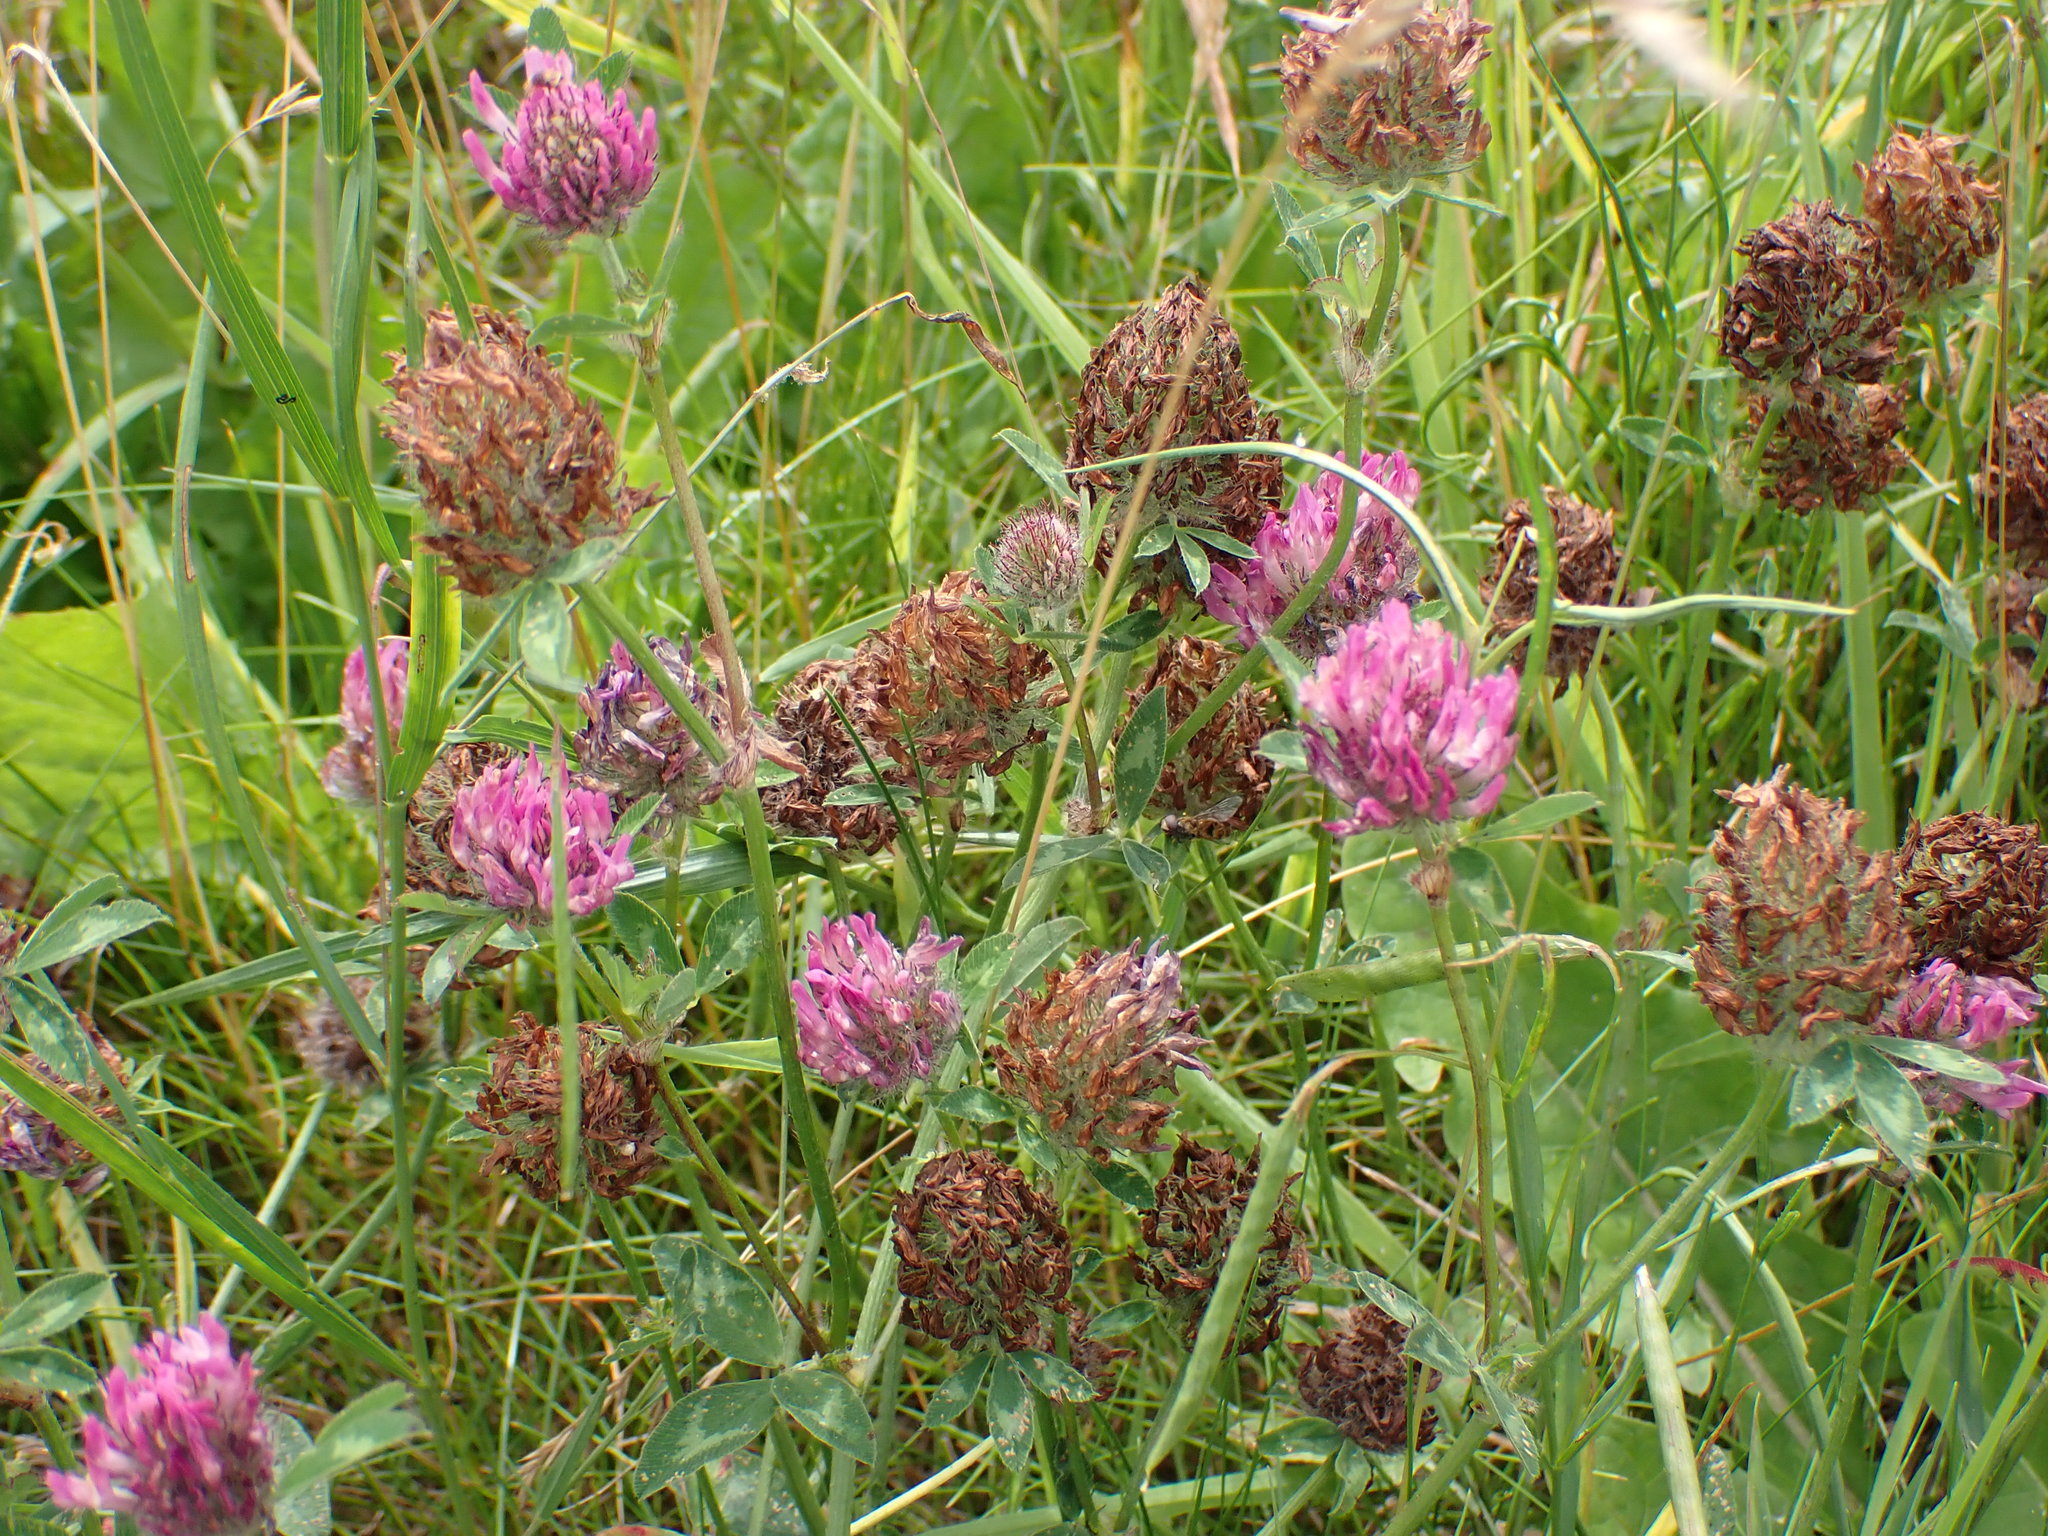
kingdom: Plantae
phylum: Tracheophyta
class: Magnoliopsida
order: Fabales
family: Fabaceae
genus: Trifolium
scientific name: Trifolium pratense
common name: Red clover
